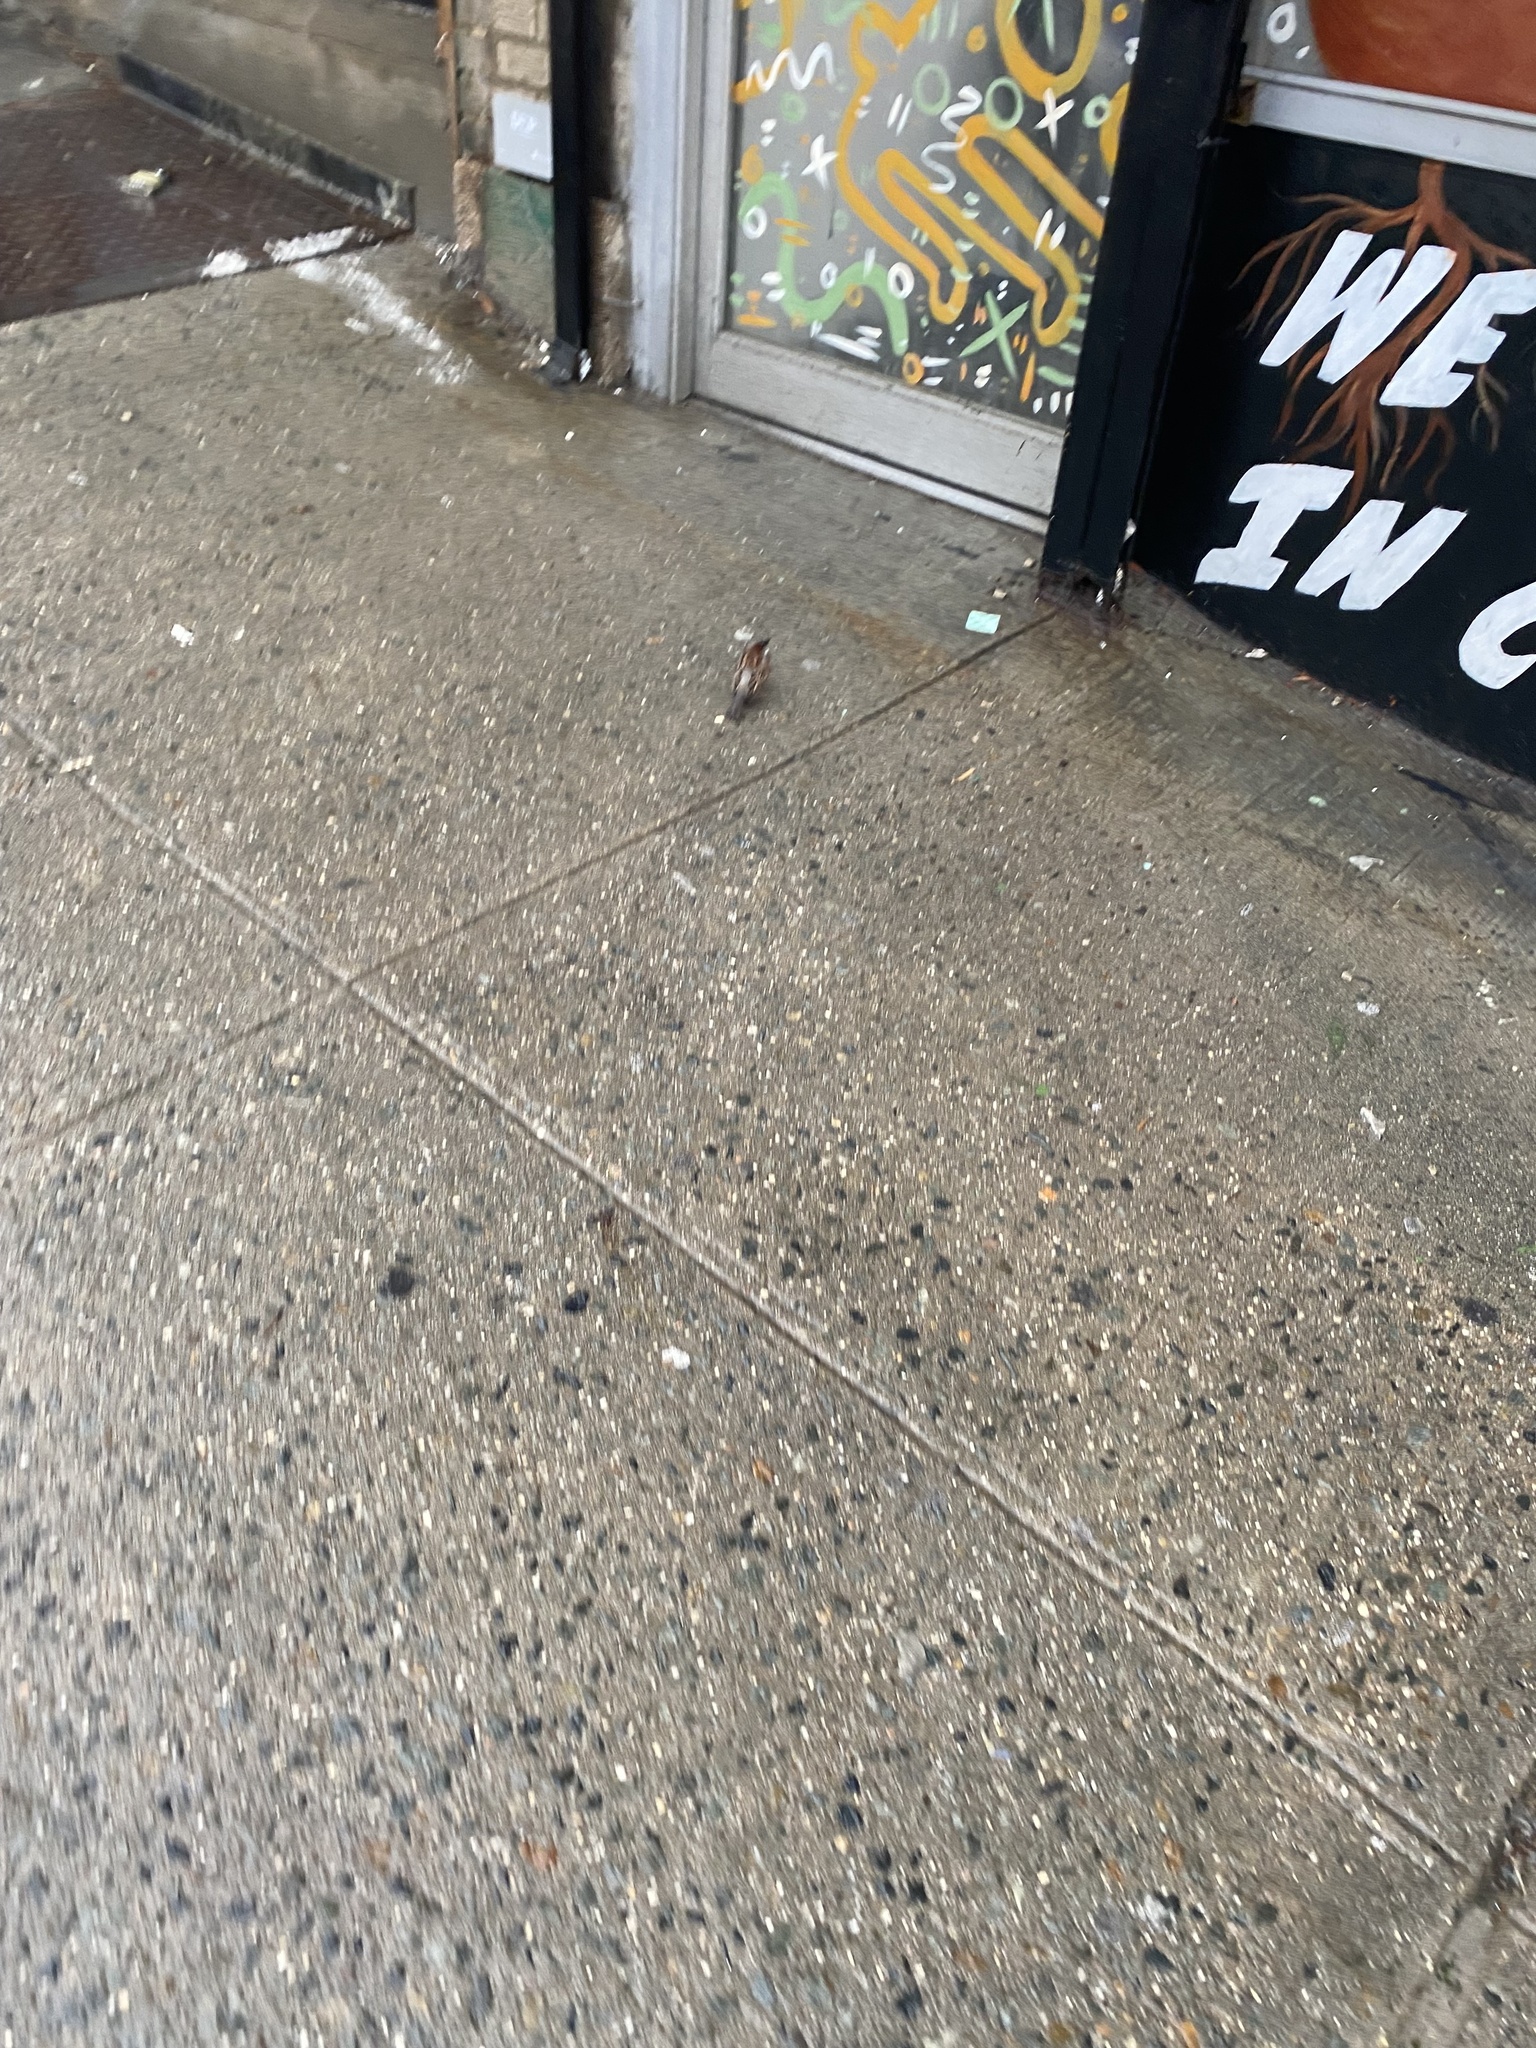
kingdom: Animalia
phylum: Chordata
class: Aves
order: Passeriformes
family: Passeridae
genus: Passer
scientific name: Passer domesticus
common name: House sparrow
